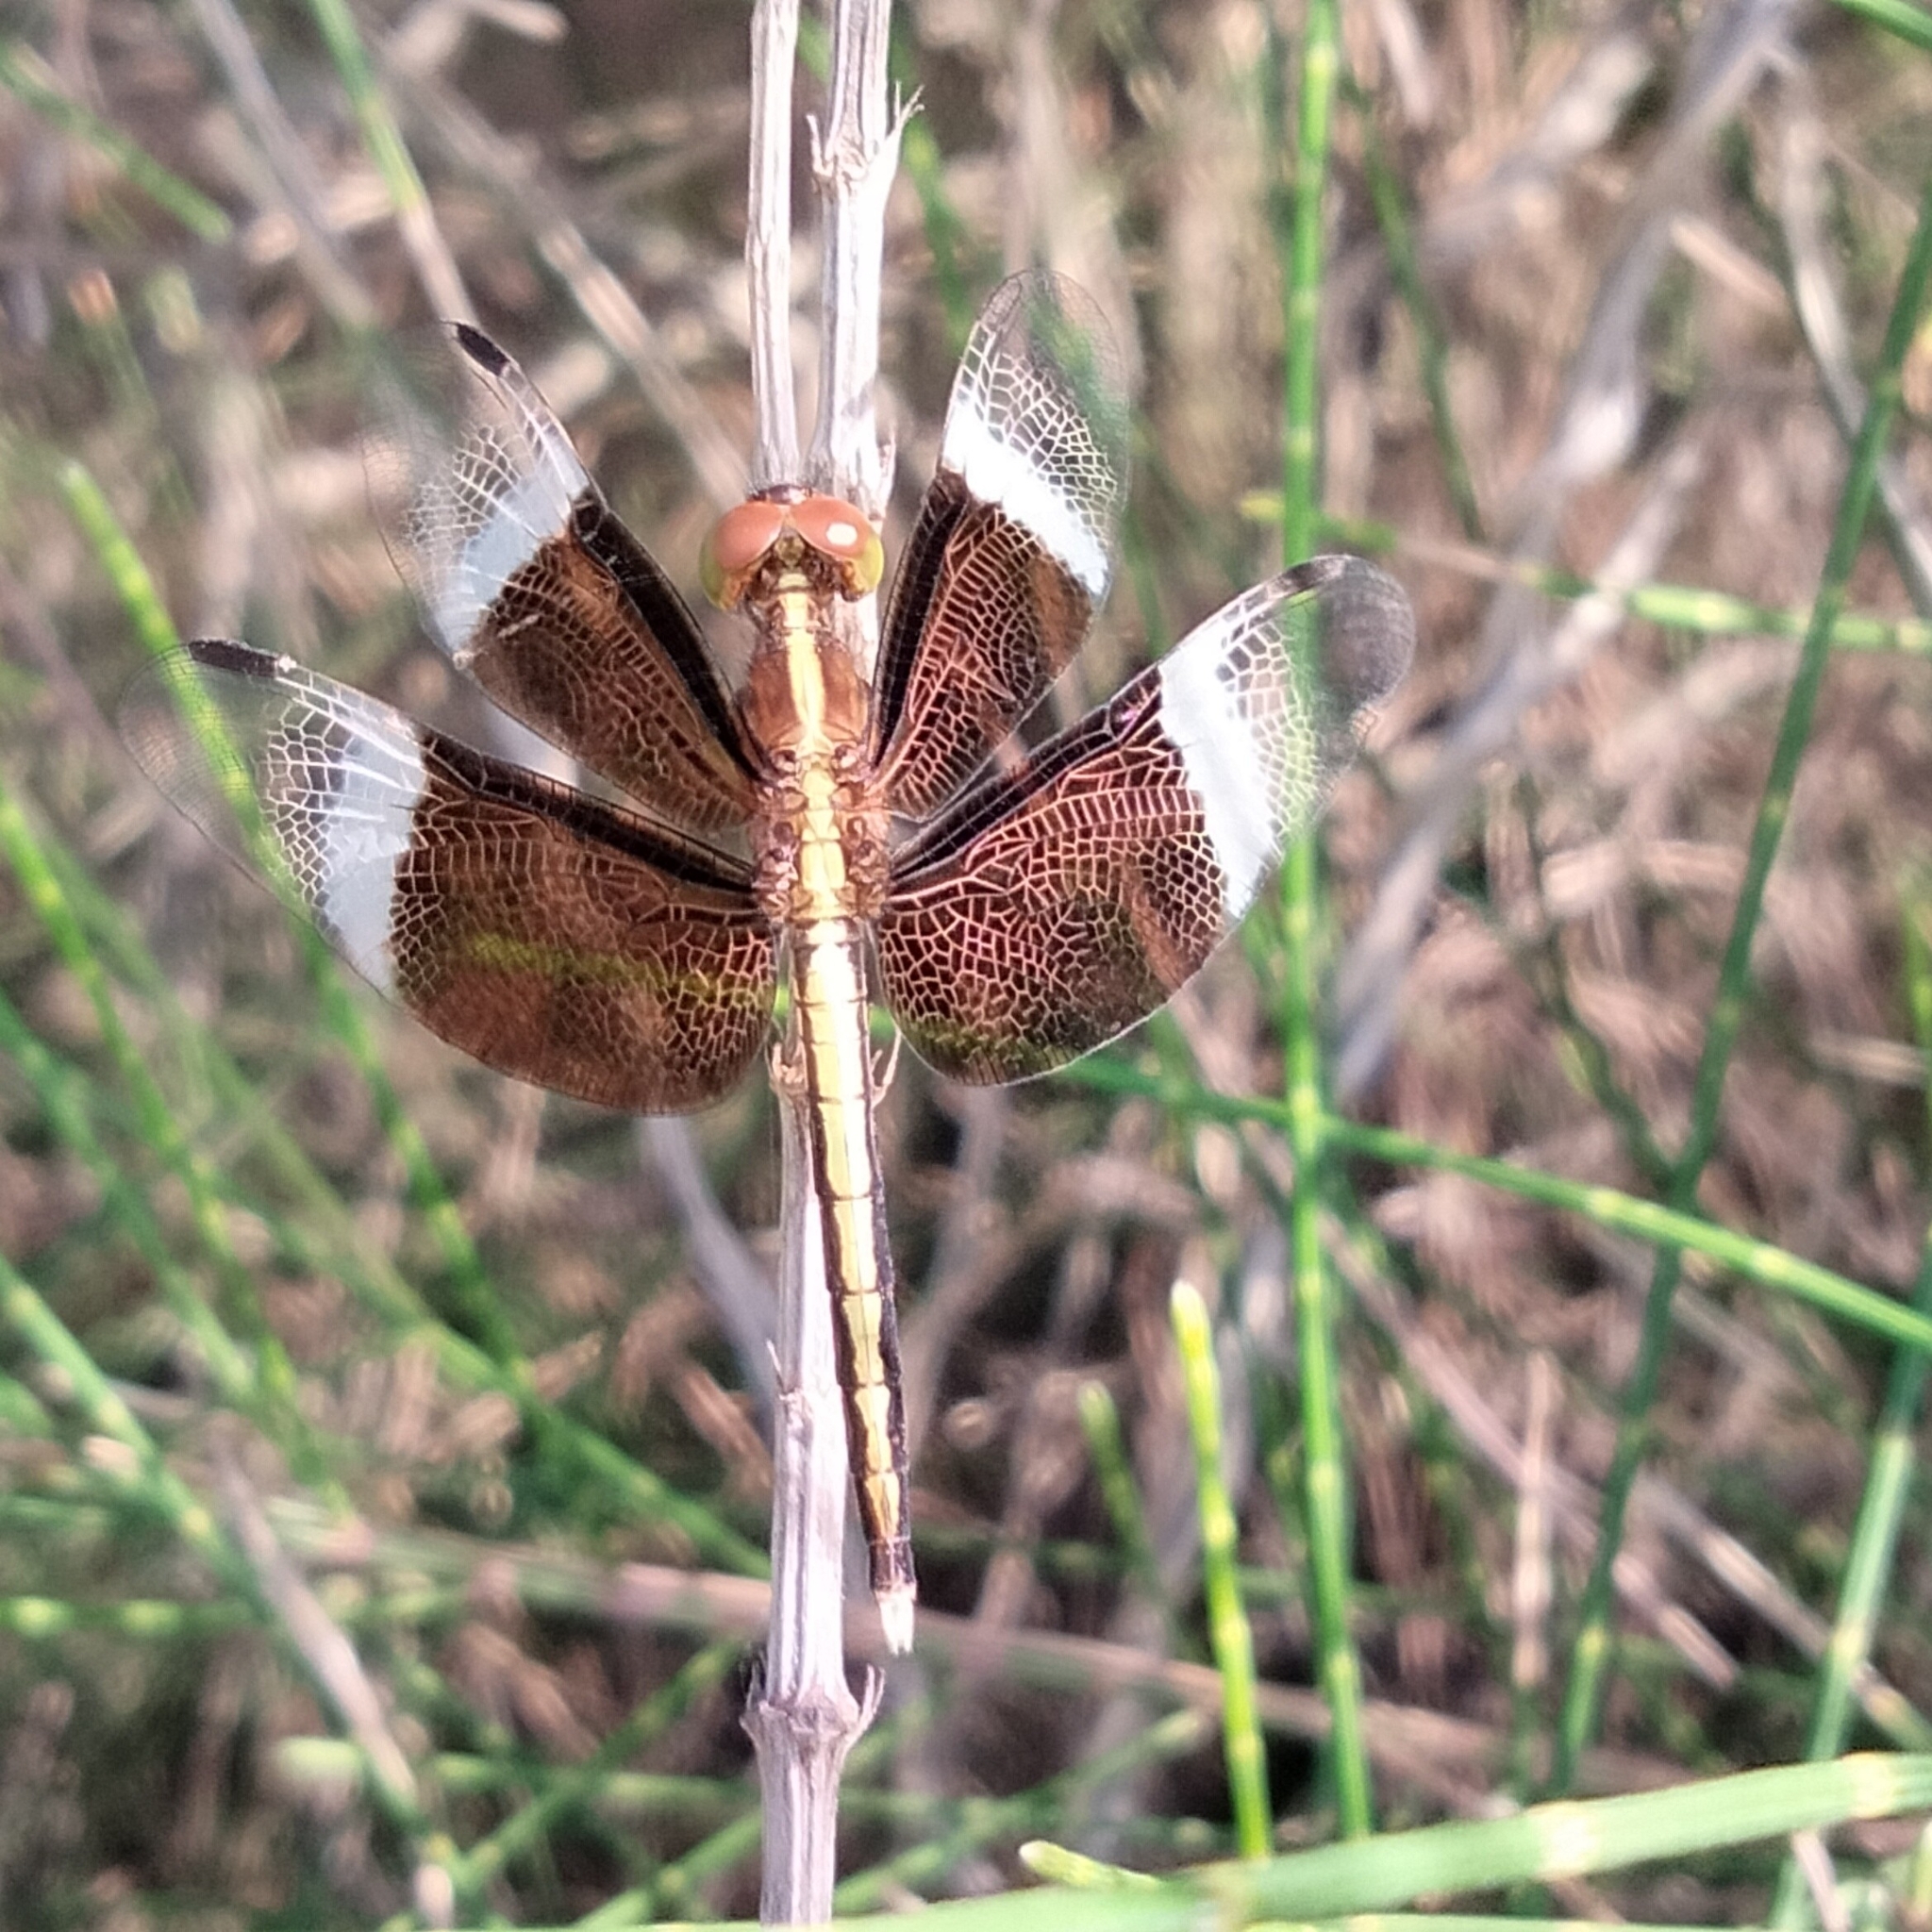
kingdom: Animalia
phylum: Arthropoda
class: Insecta
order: Odonata
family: Libellulidae
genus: Neurothemis
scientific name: Neurothemis tullia
